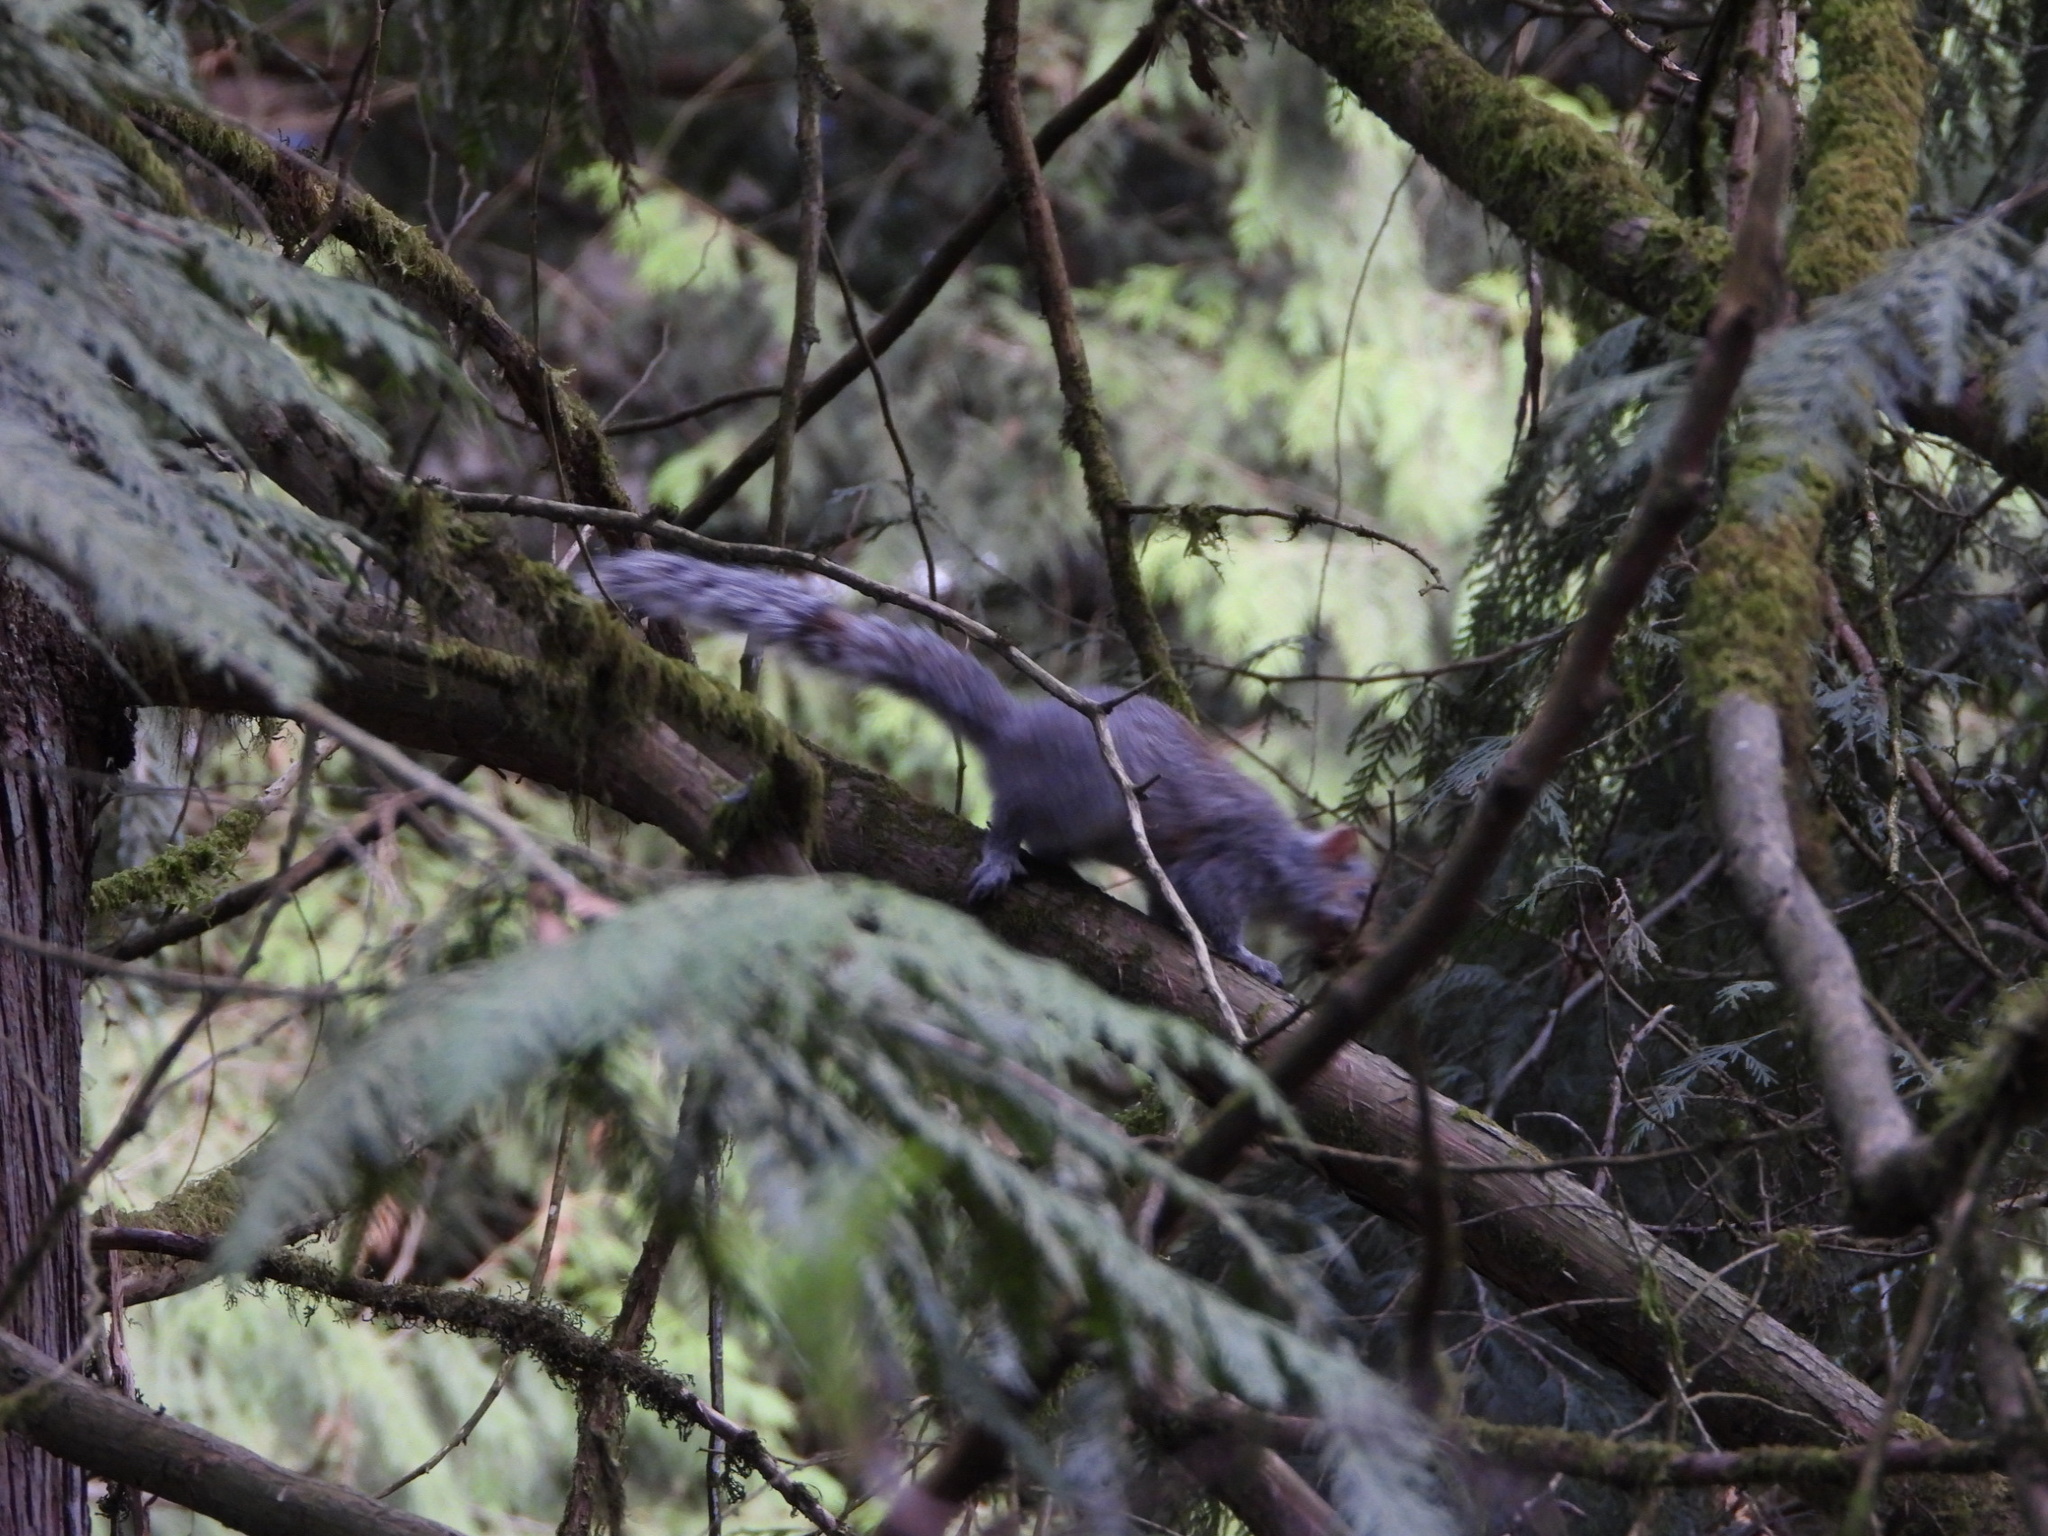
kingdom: Animalia
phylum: Chordata
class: Mammalia
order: Rodentia
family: Sciuridae
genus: Sciurus
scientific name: Sciurus carolinensis
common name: Eastern gray squirrel
